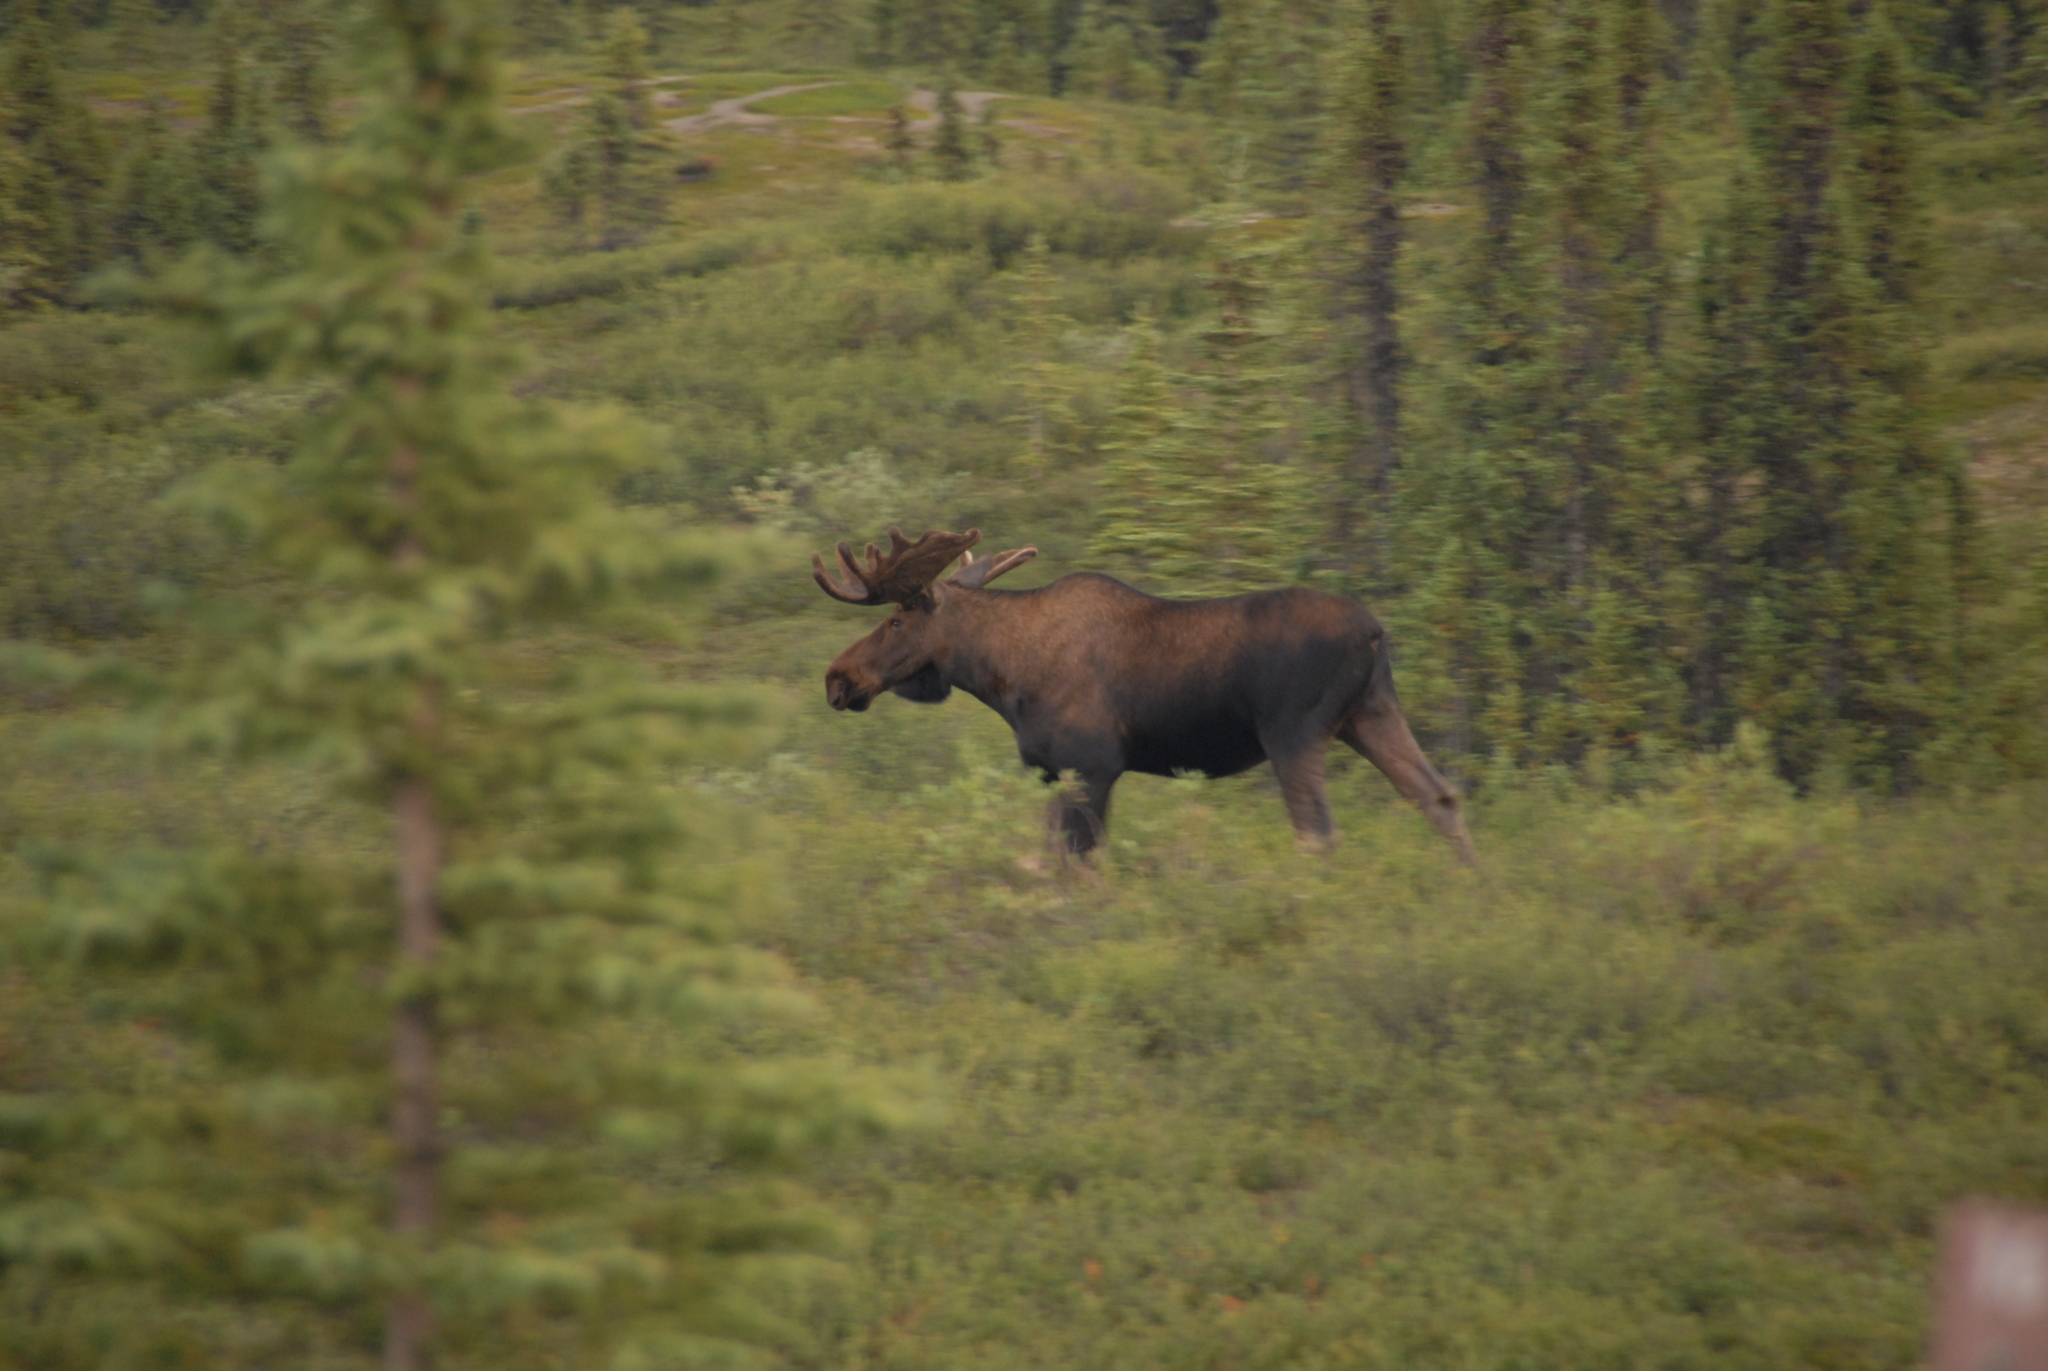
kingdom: Animalia
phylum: Chordata
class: Mammalia
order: Artiodactyla
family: Cervidae
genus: Alces
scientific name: Alces americanus
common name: Moose
